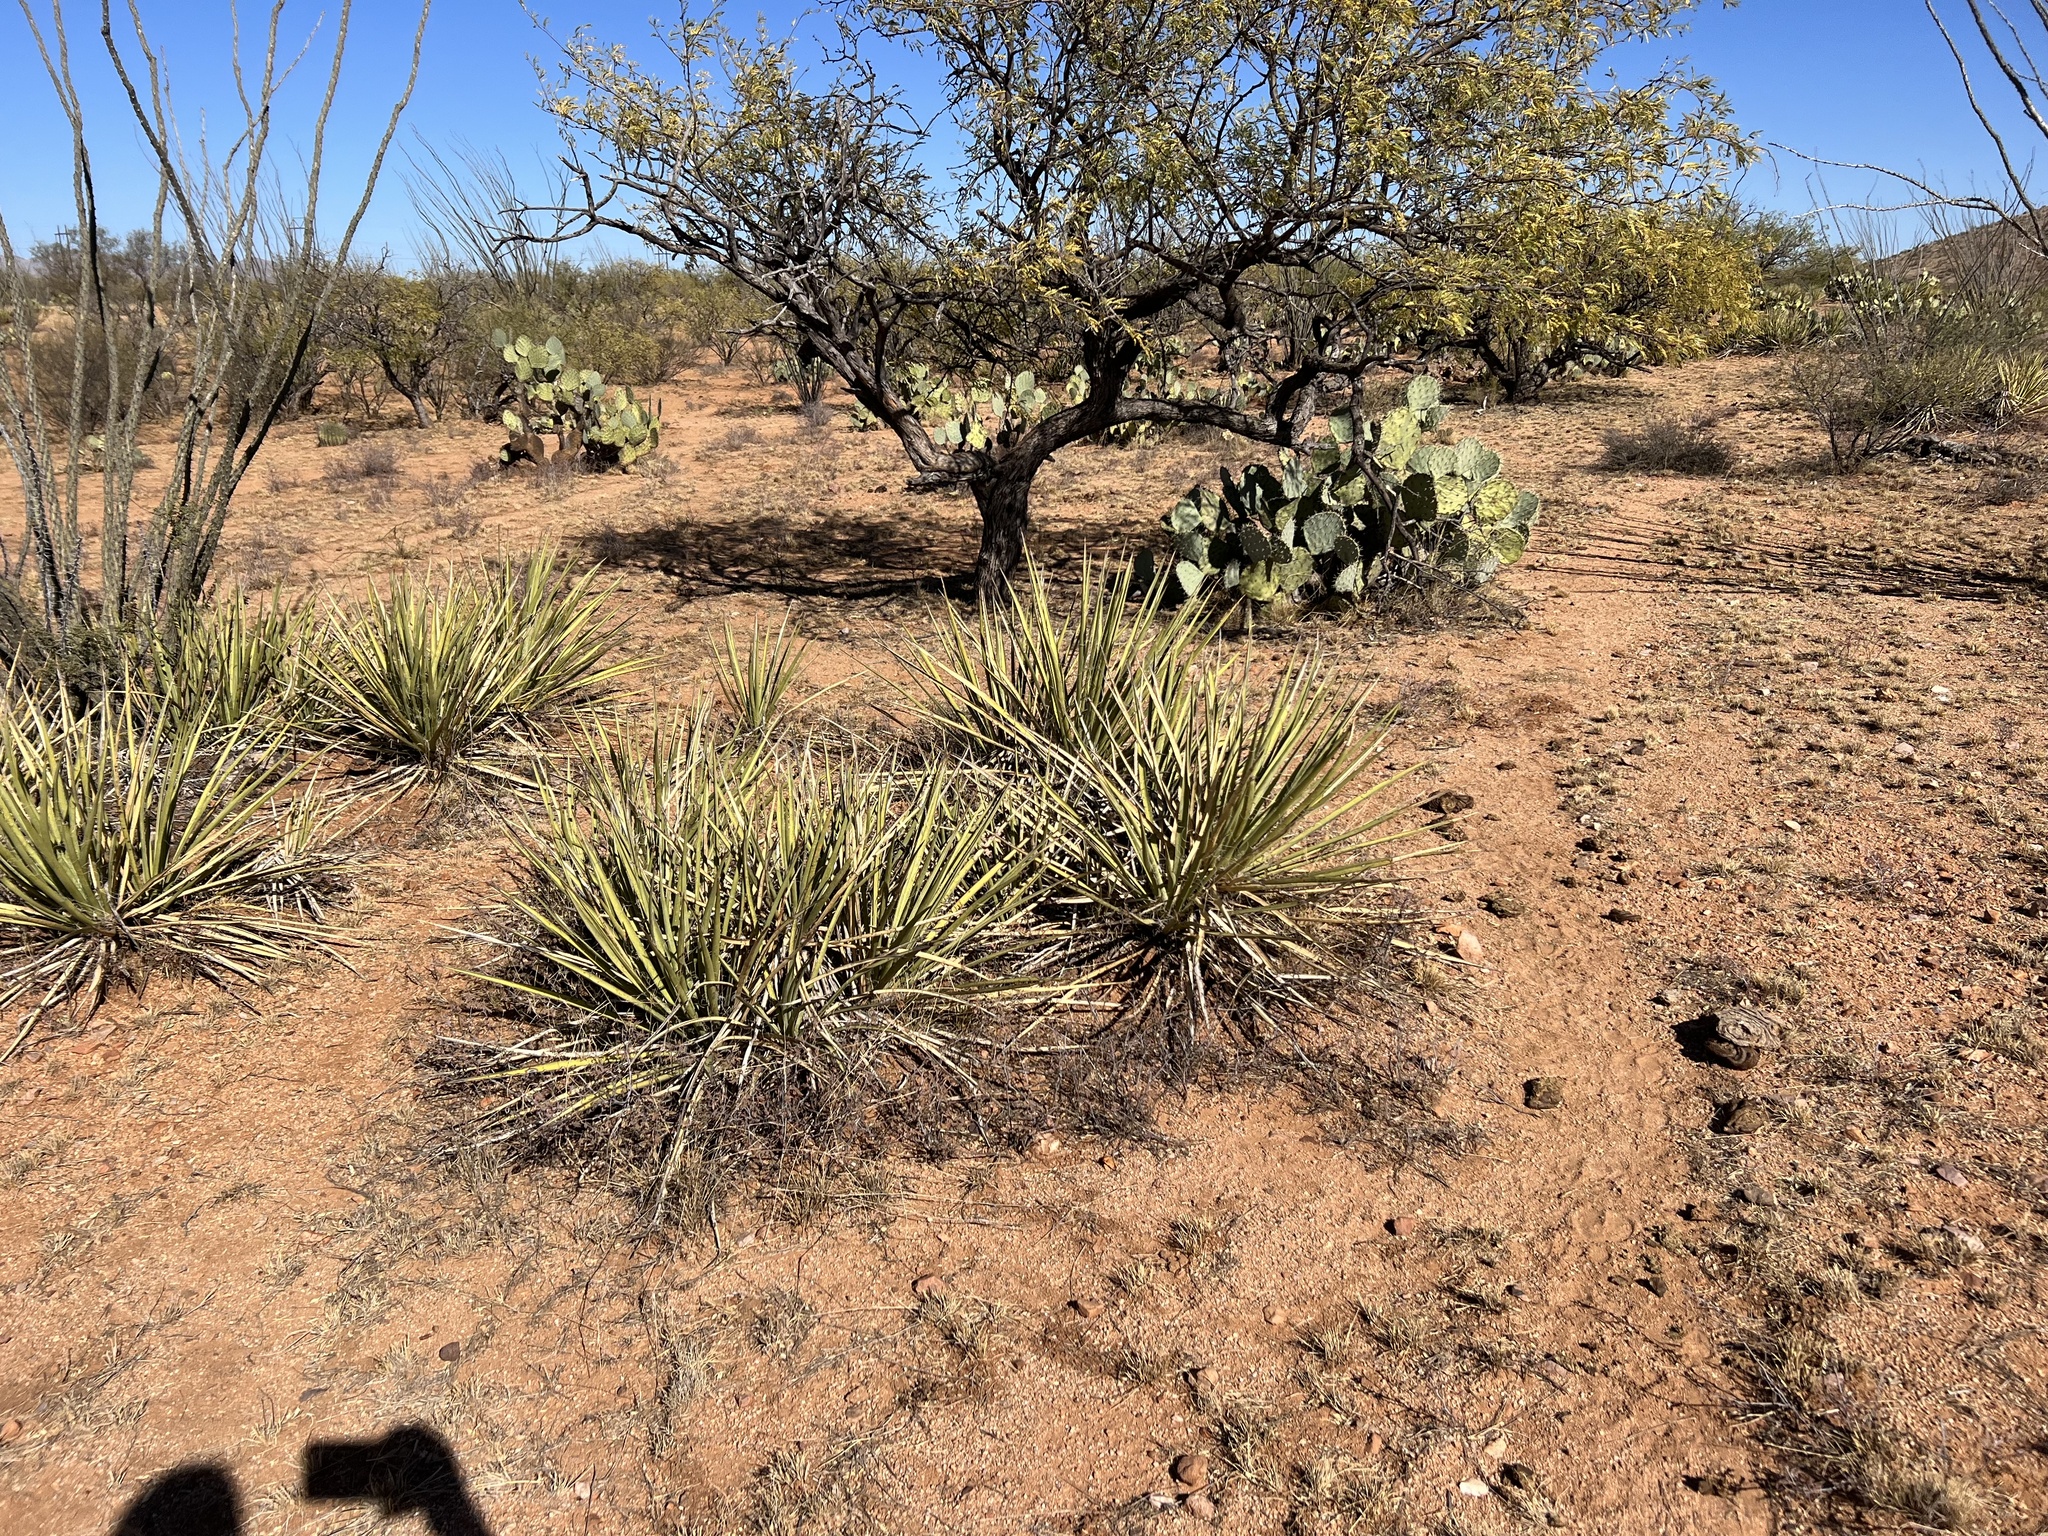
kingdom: Plantae
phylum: Tracheophyta
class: Liliopsida
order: Asparagales
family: Asparagaceae
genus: Yucca
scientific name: Yucca baccata
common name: Banana yucca
